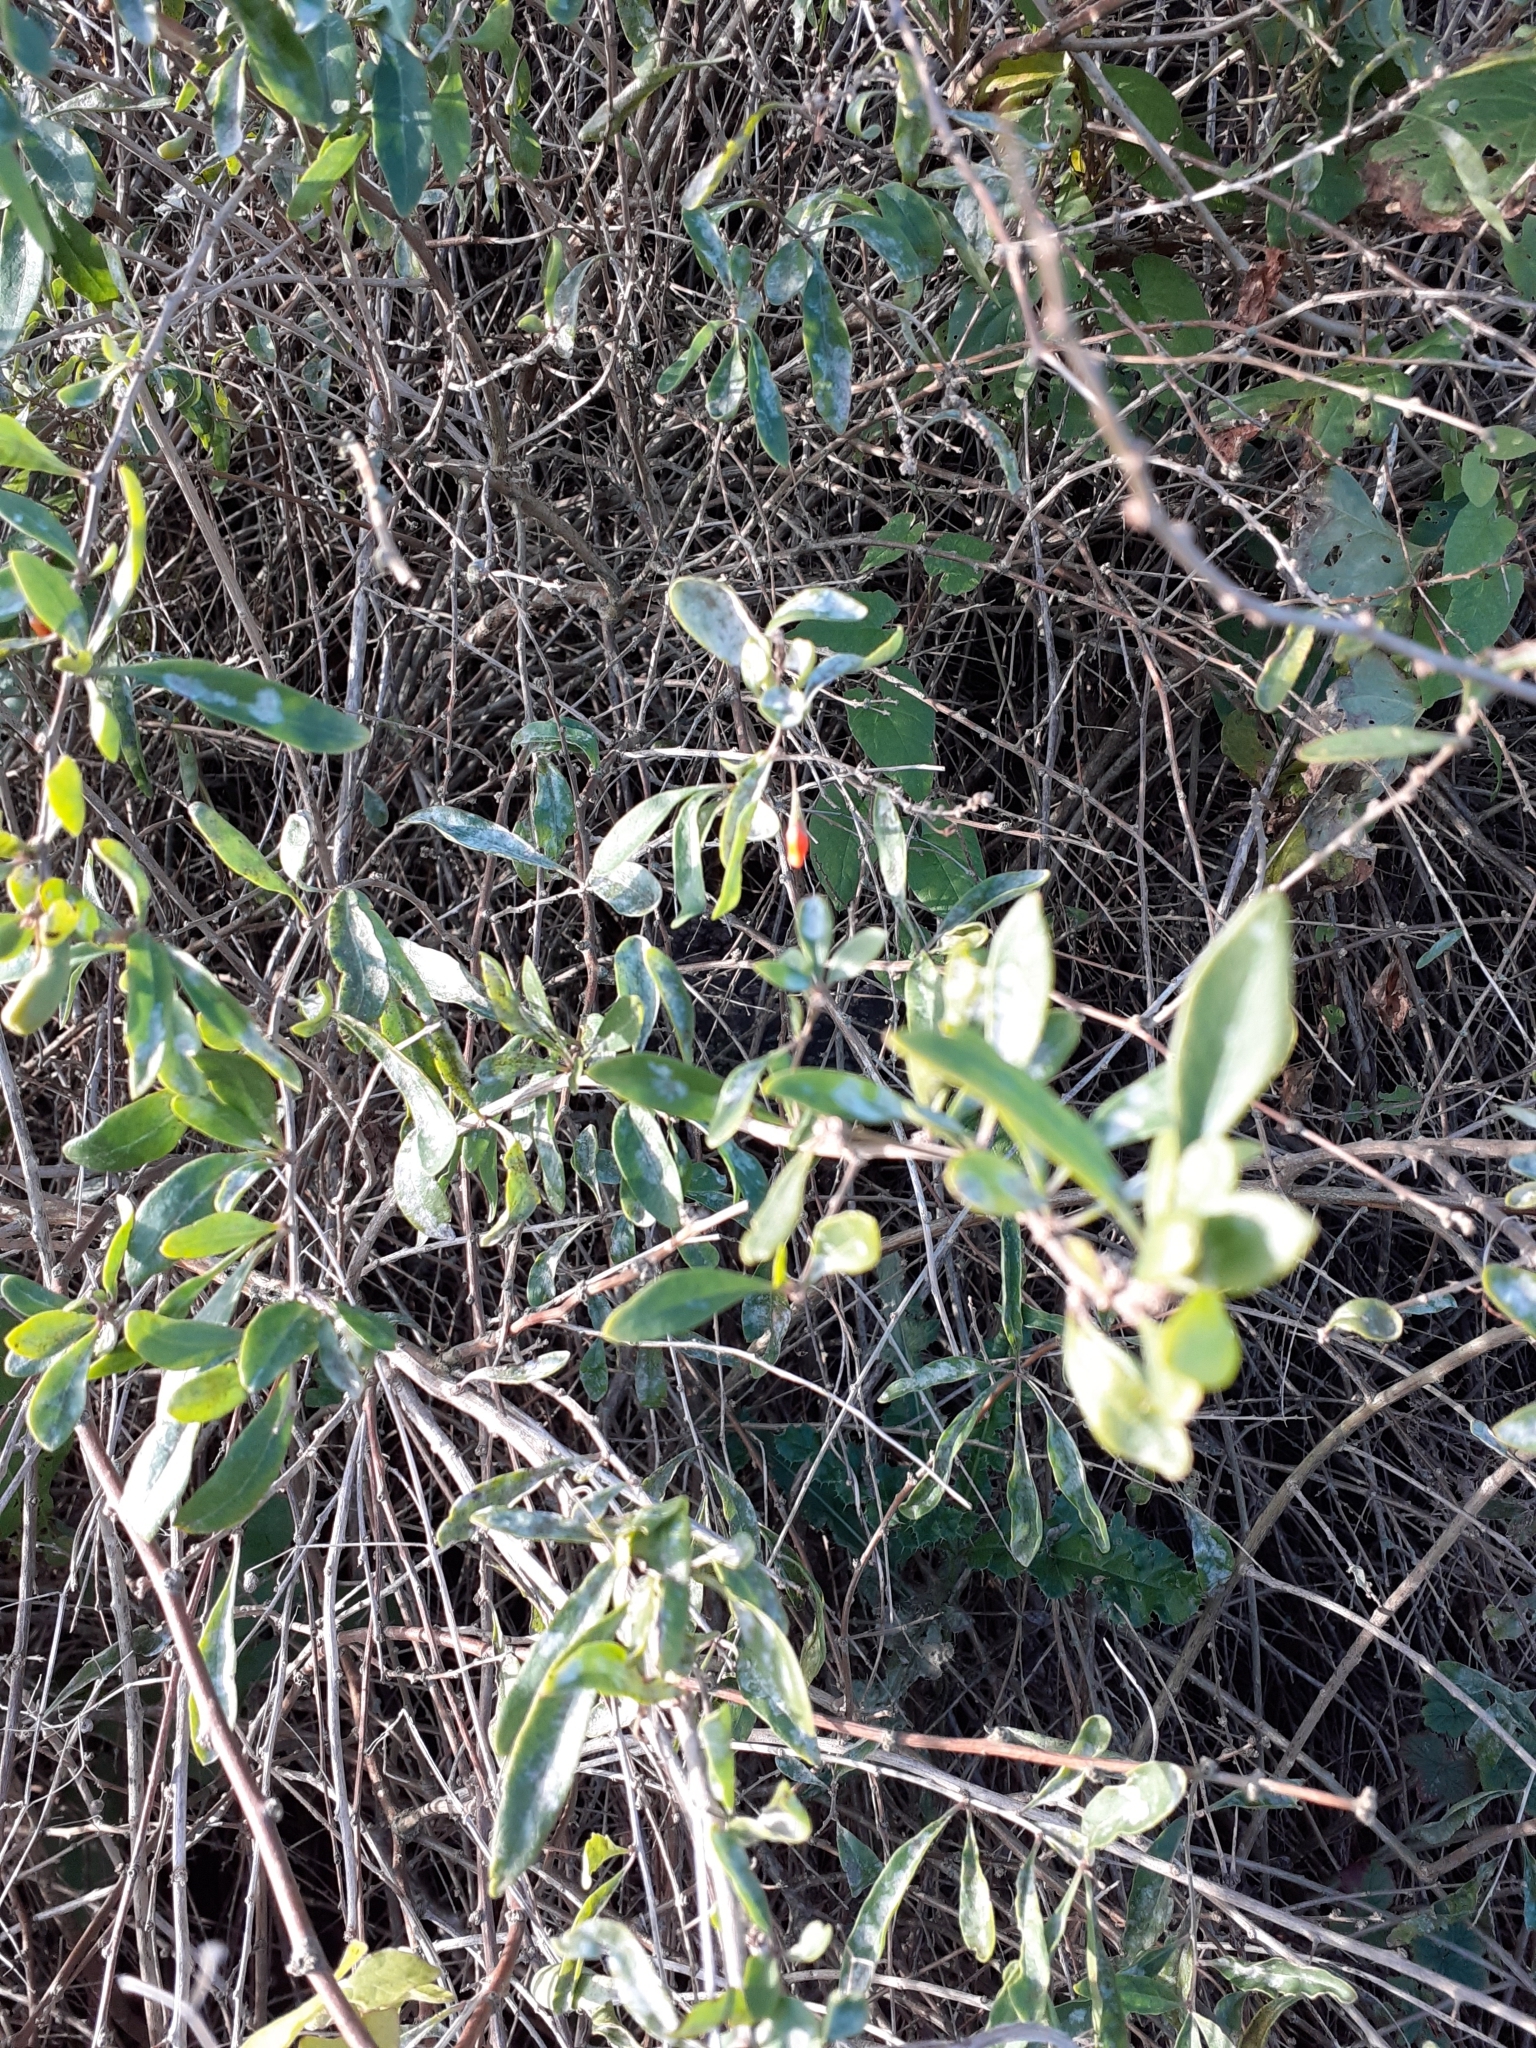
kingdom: Plantae
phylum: Tracheophyta
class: Magnoliopsida
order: Solanales
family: Solanaceae
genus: Lycium
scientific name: Lycium barbarum
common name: Duke of argyll's teaplant
